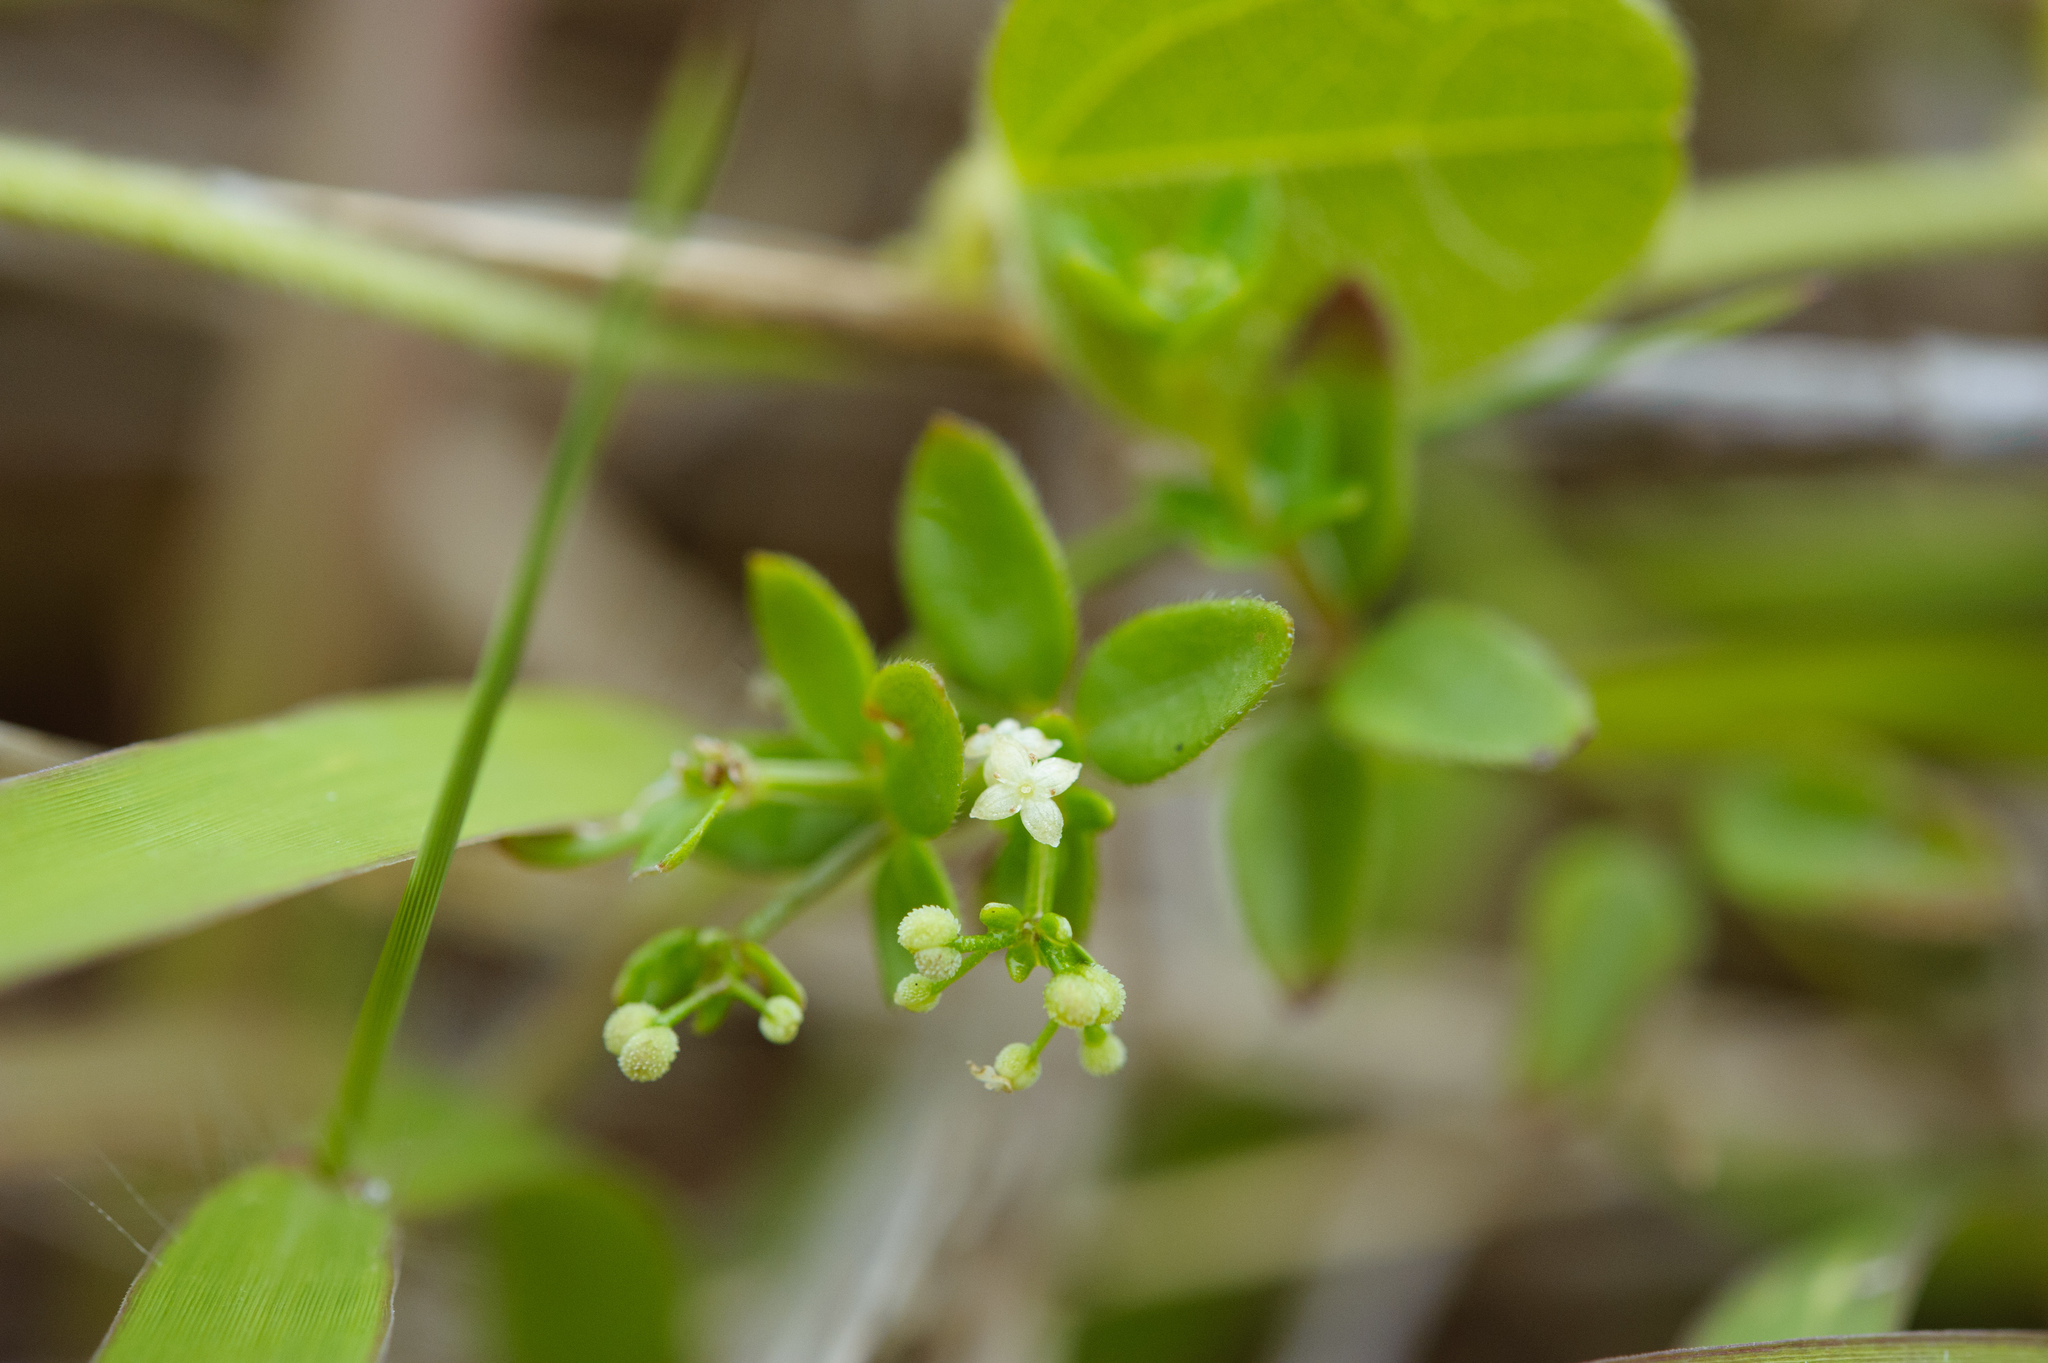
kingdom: Plantae
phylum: Tracheophyta
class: Magnoliopsida
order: Gentianales
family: Rubiaceae
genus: Galium
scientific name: Galium bungei
